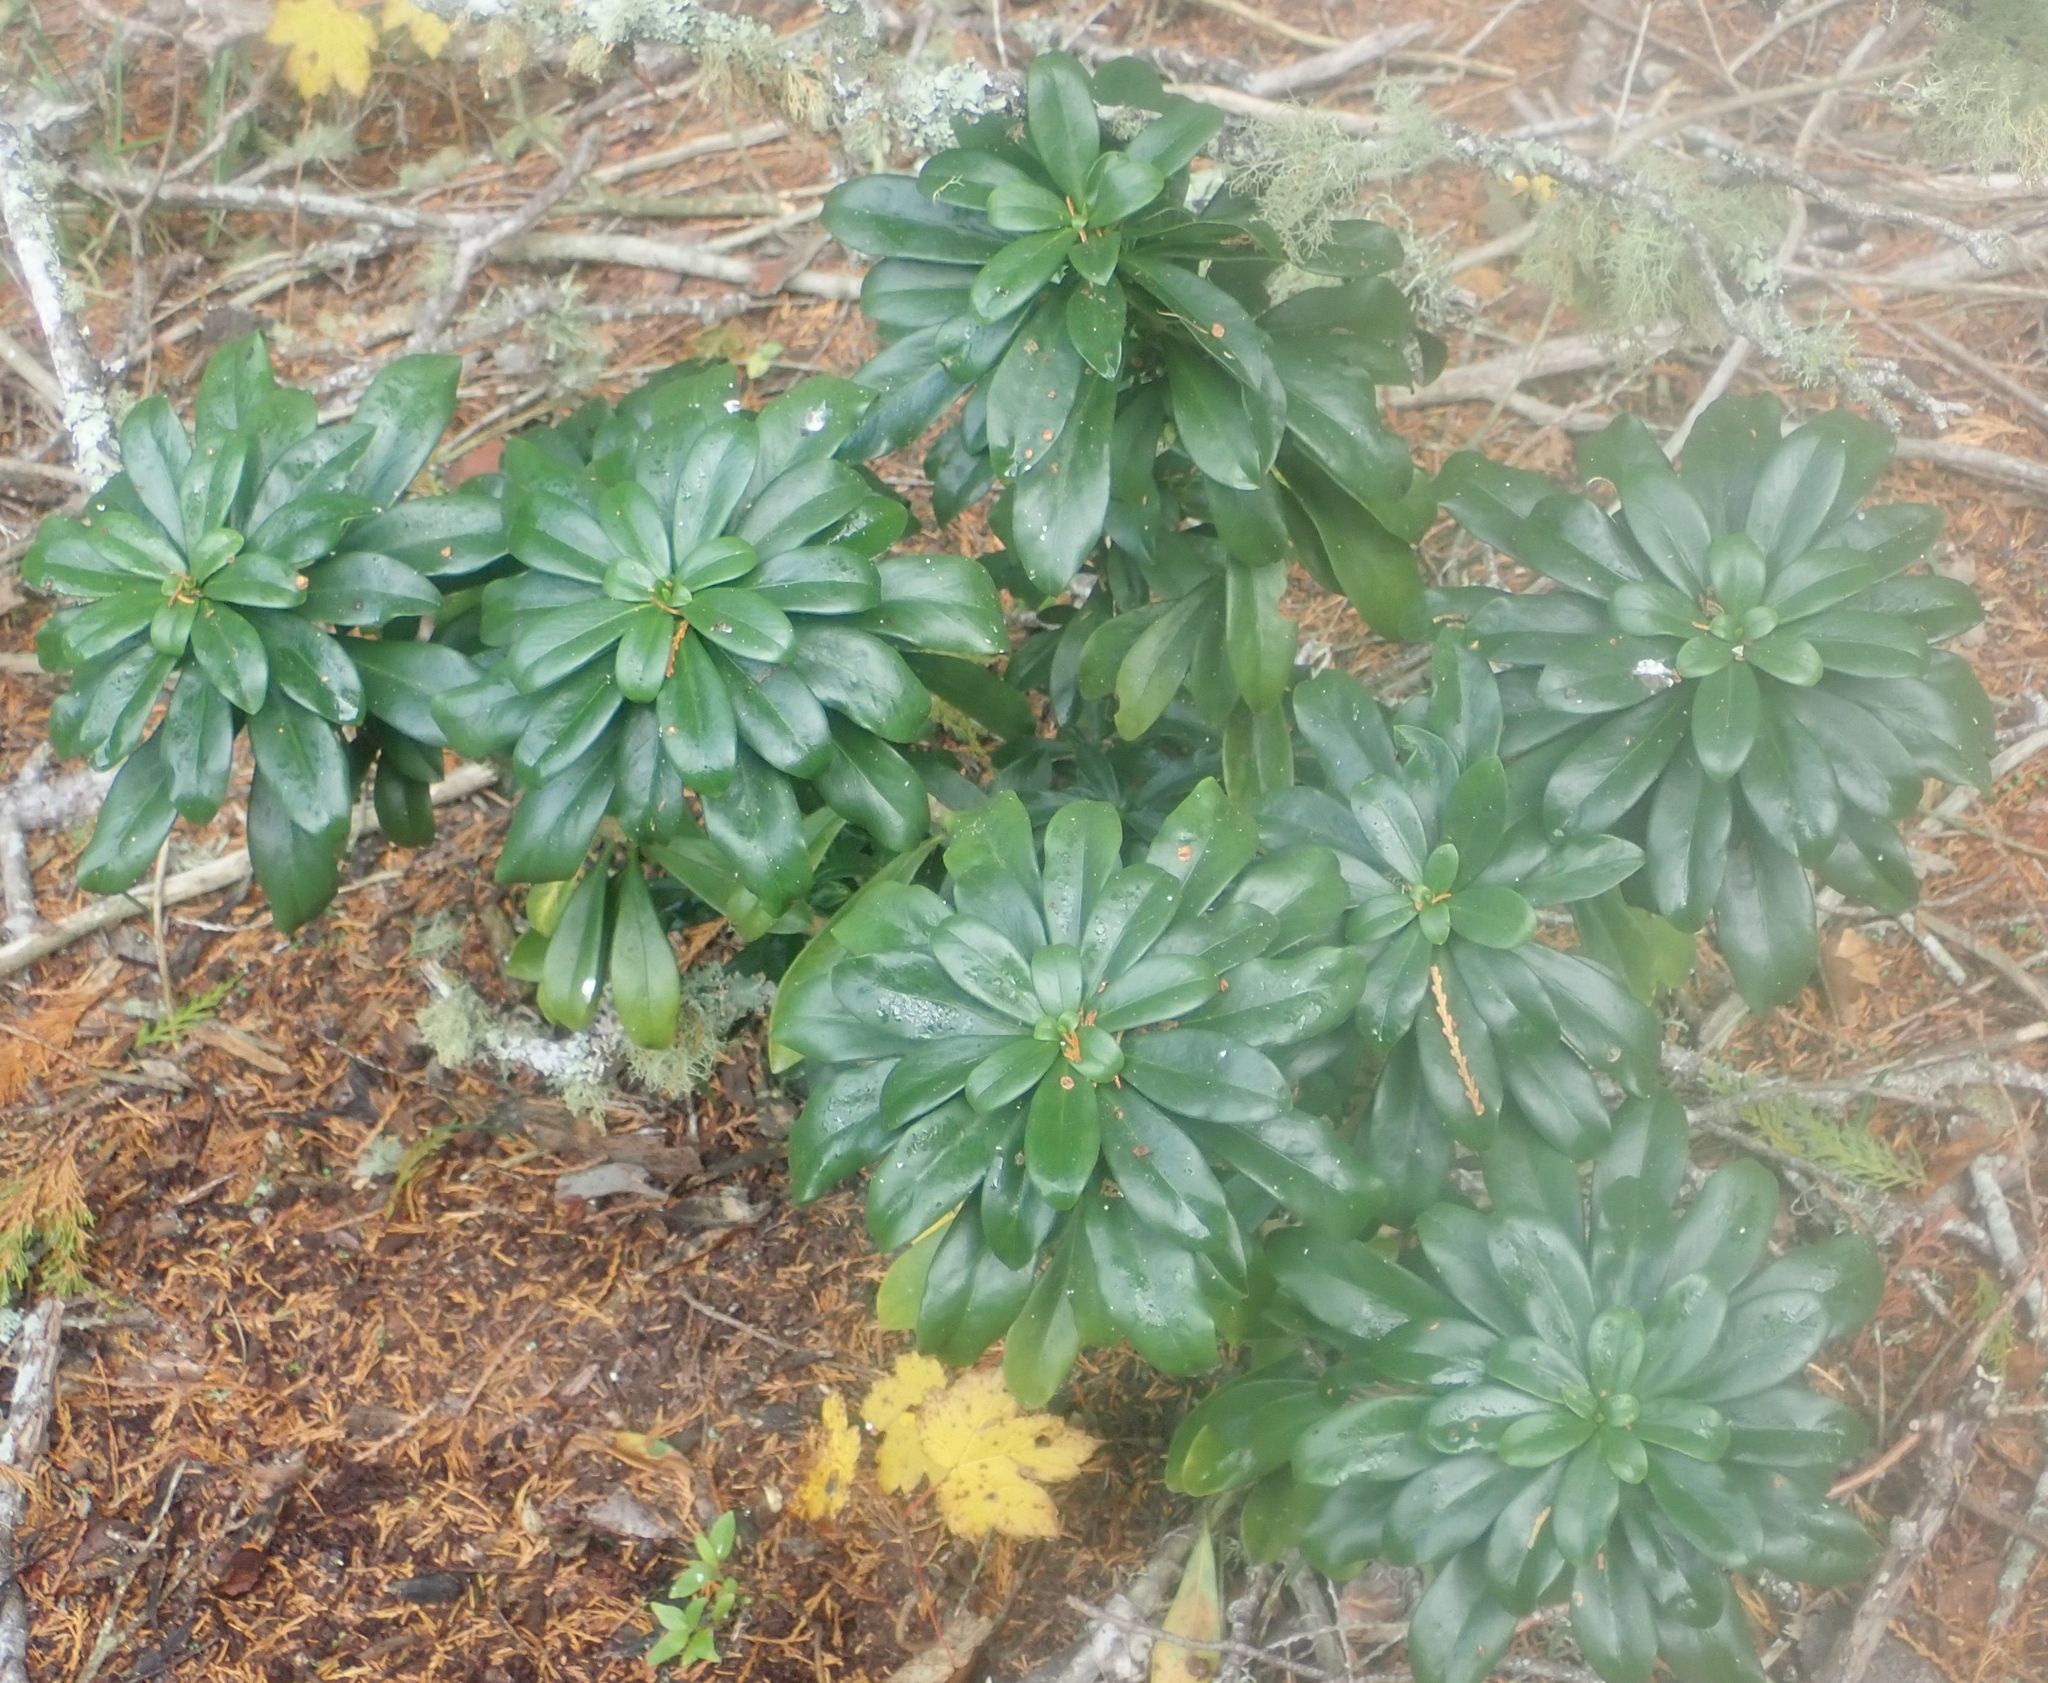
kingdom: Plantae
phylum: Tracheophyta
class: Magnoliopsida
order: Malvales
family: Thymelaeaceae
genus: Daphne
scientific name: Daphne laureola
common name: Spurge-laurel
